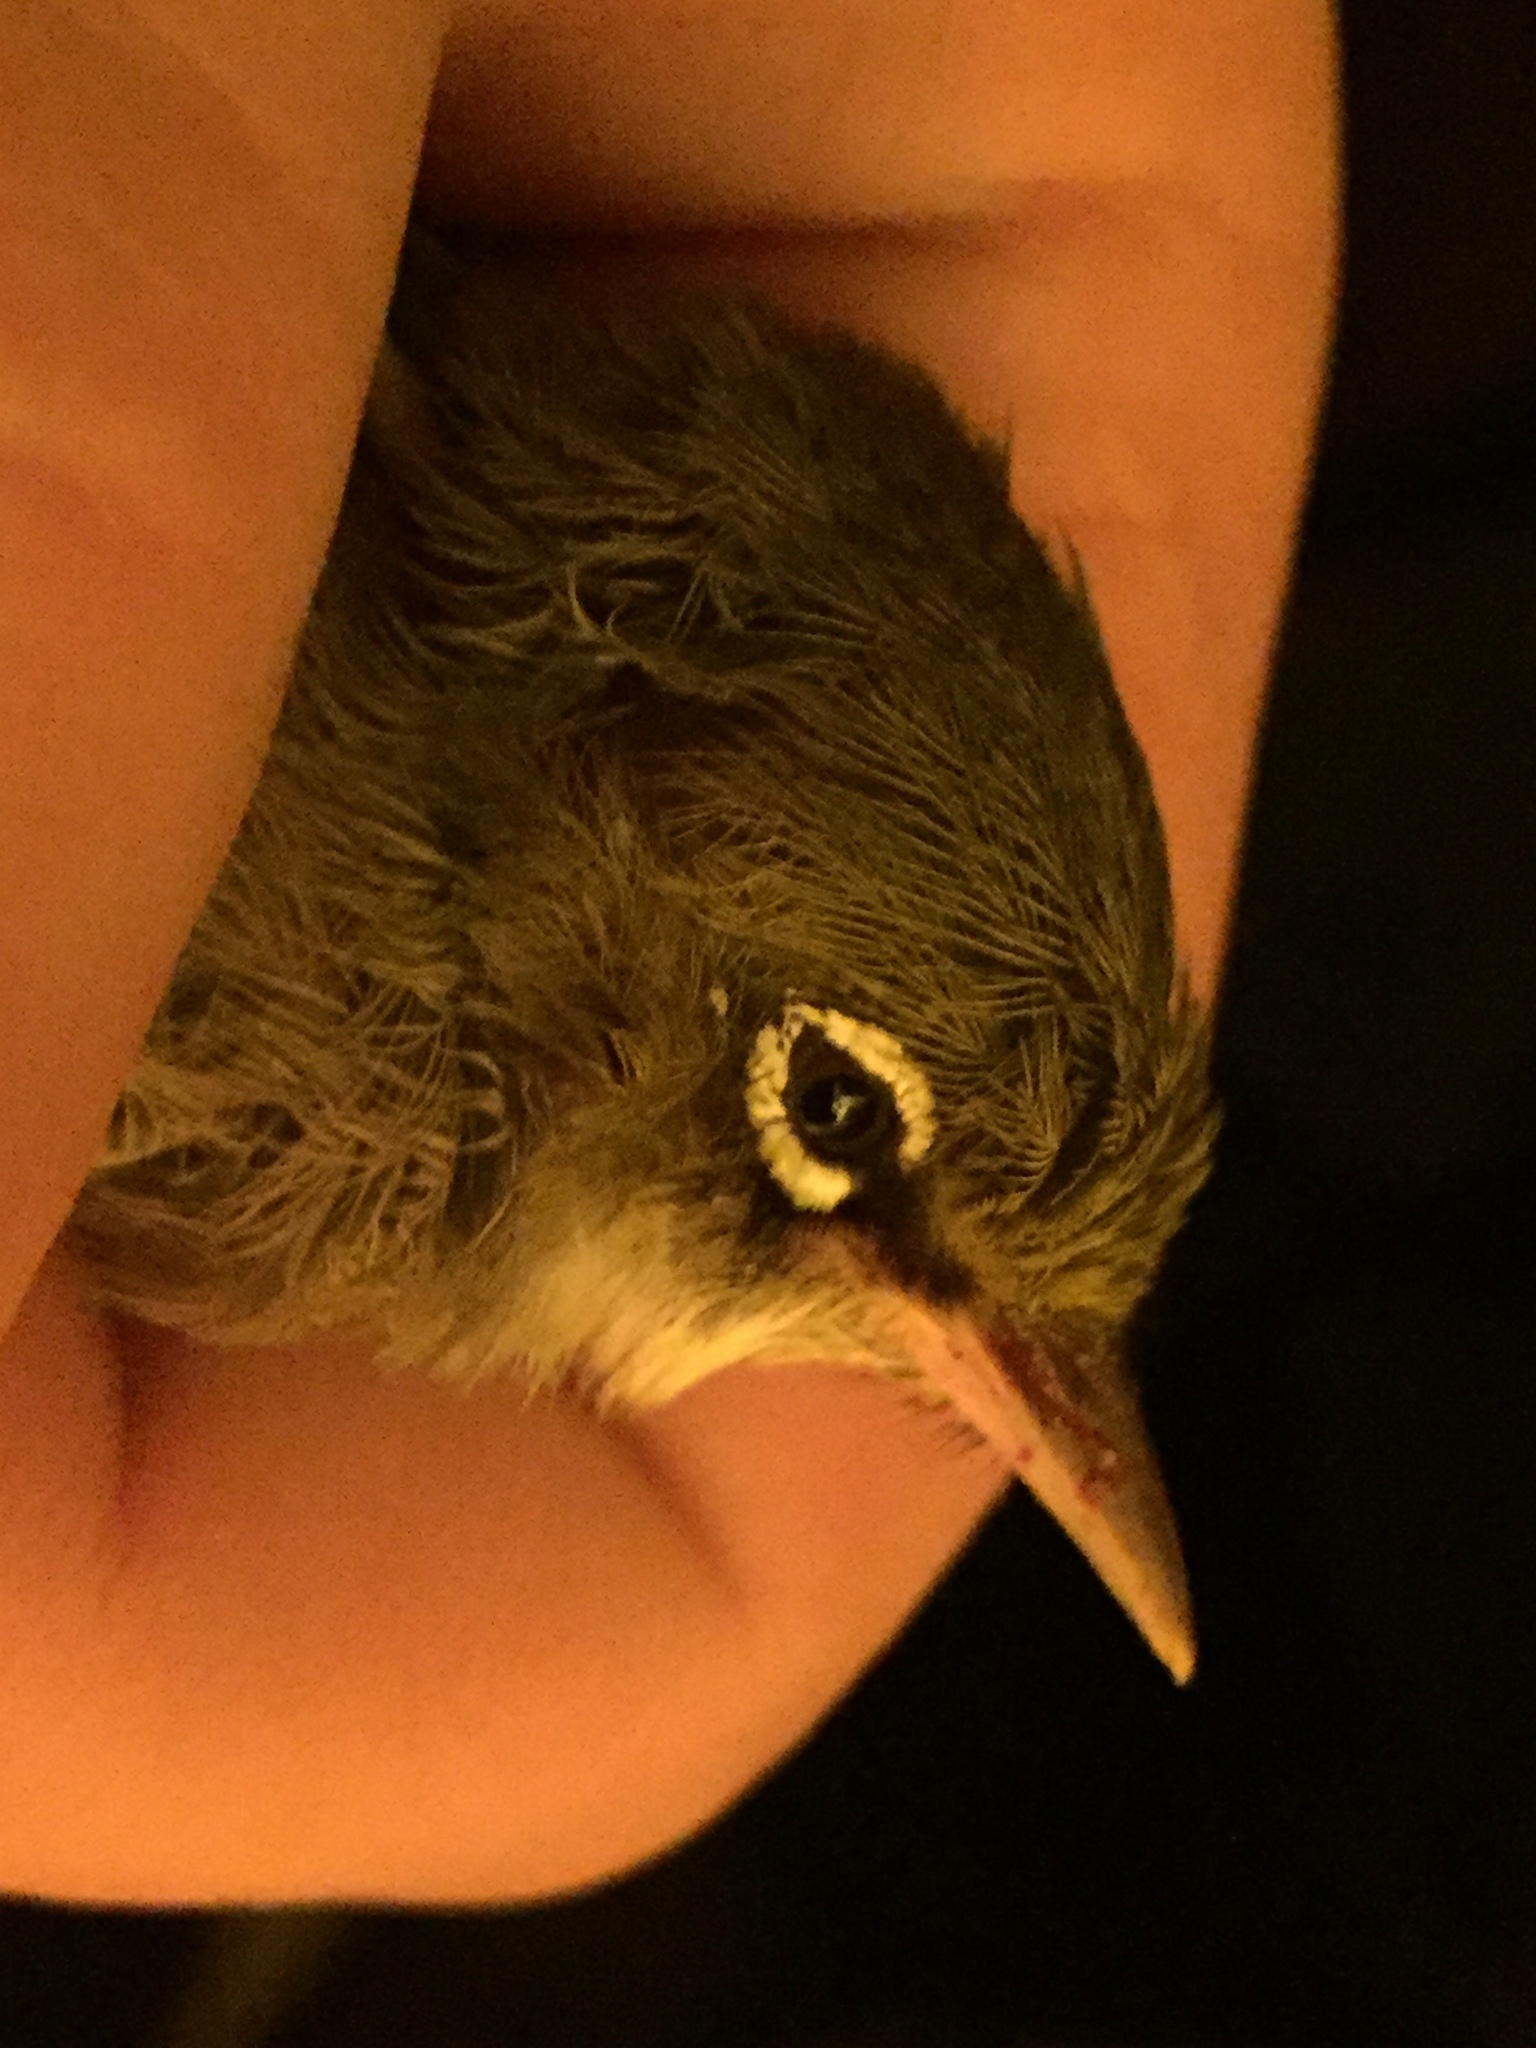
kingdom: Animalia
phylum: Chordata
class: Aves
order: Passeriformes
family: Zosteropidae
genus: Zosterops
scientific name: Zosterops lateralis
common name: Silvereye
